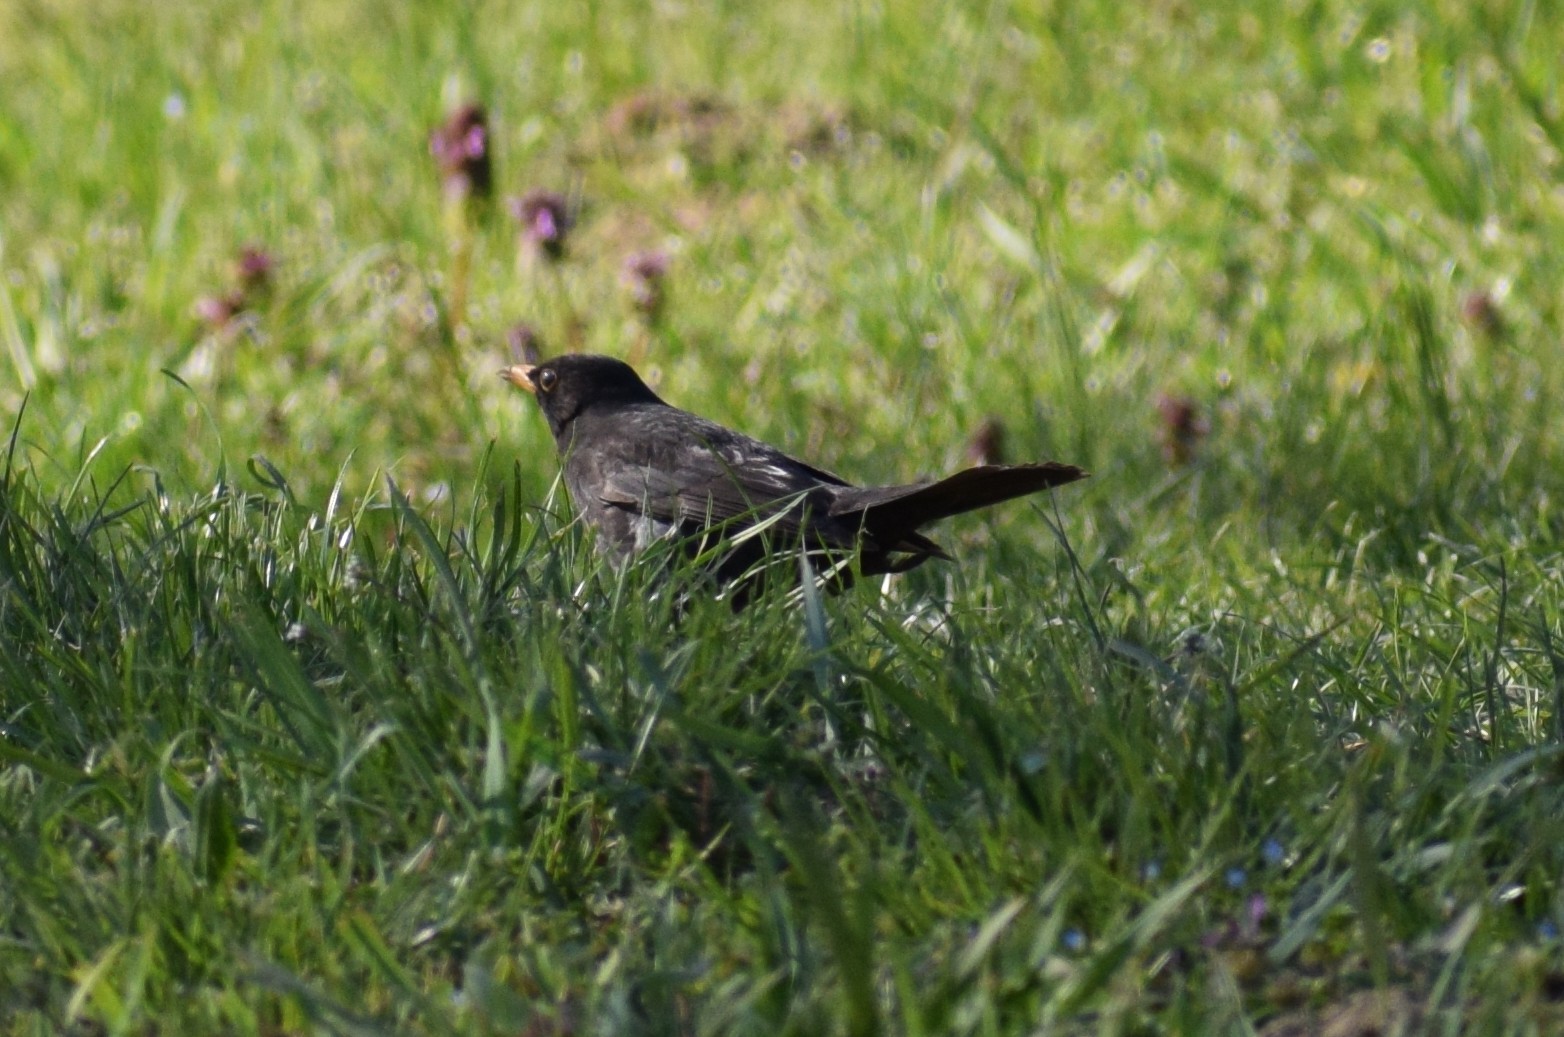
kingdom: Animalia
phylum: Chordata
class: Aves
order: Passeriformes
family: Turdidae
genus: Turdus
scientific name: Turdus merula
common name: Common blackbird
